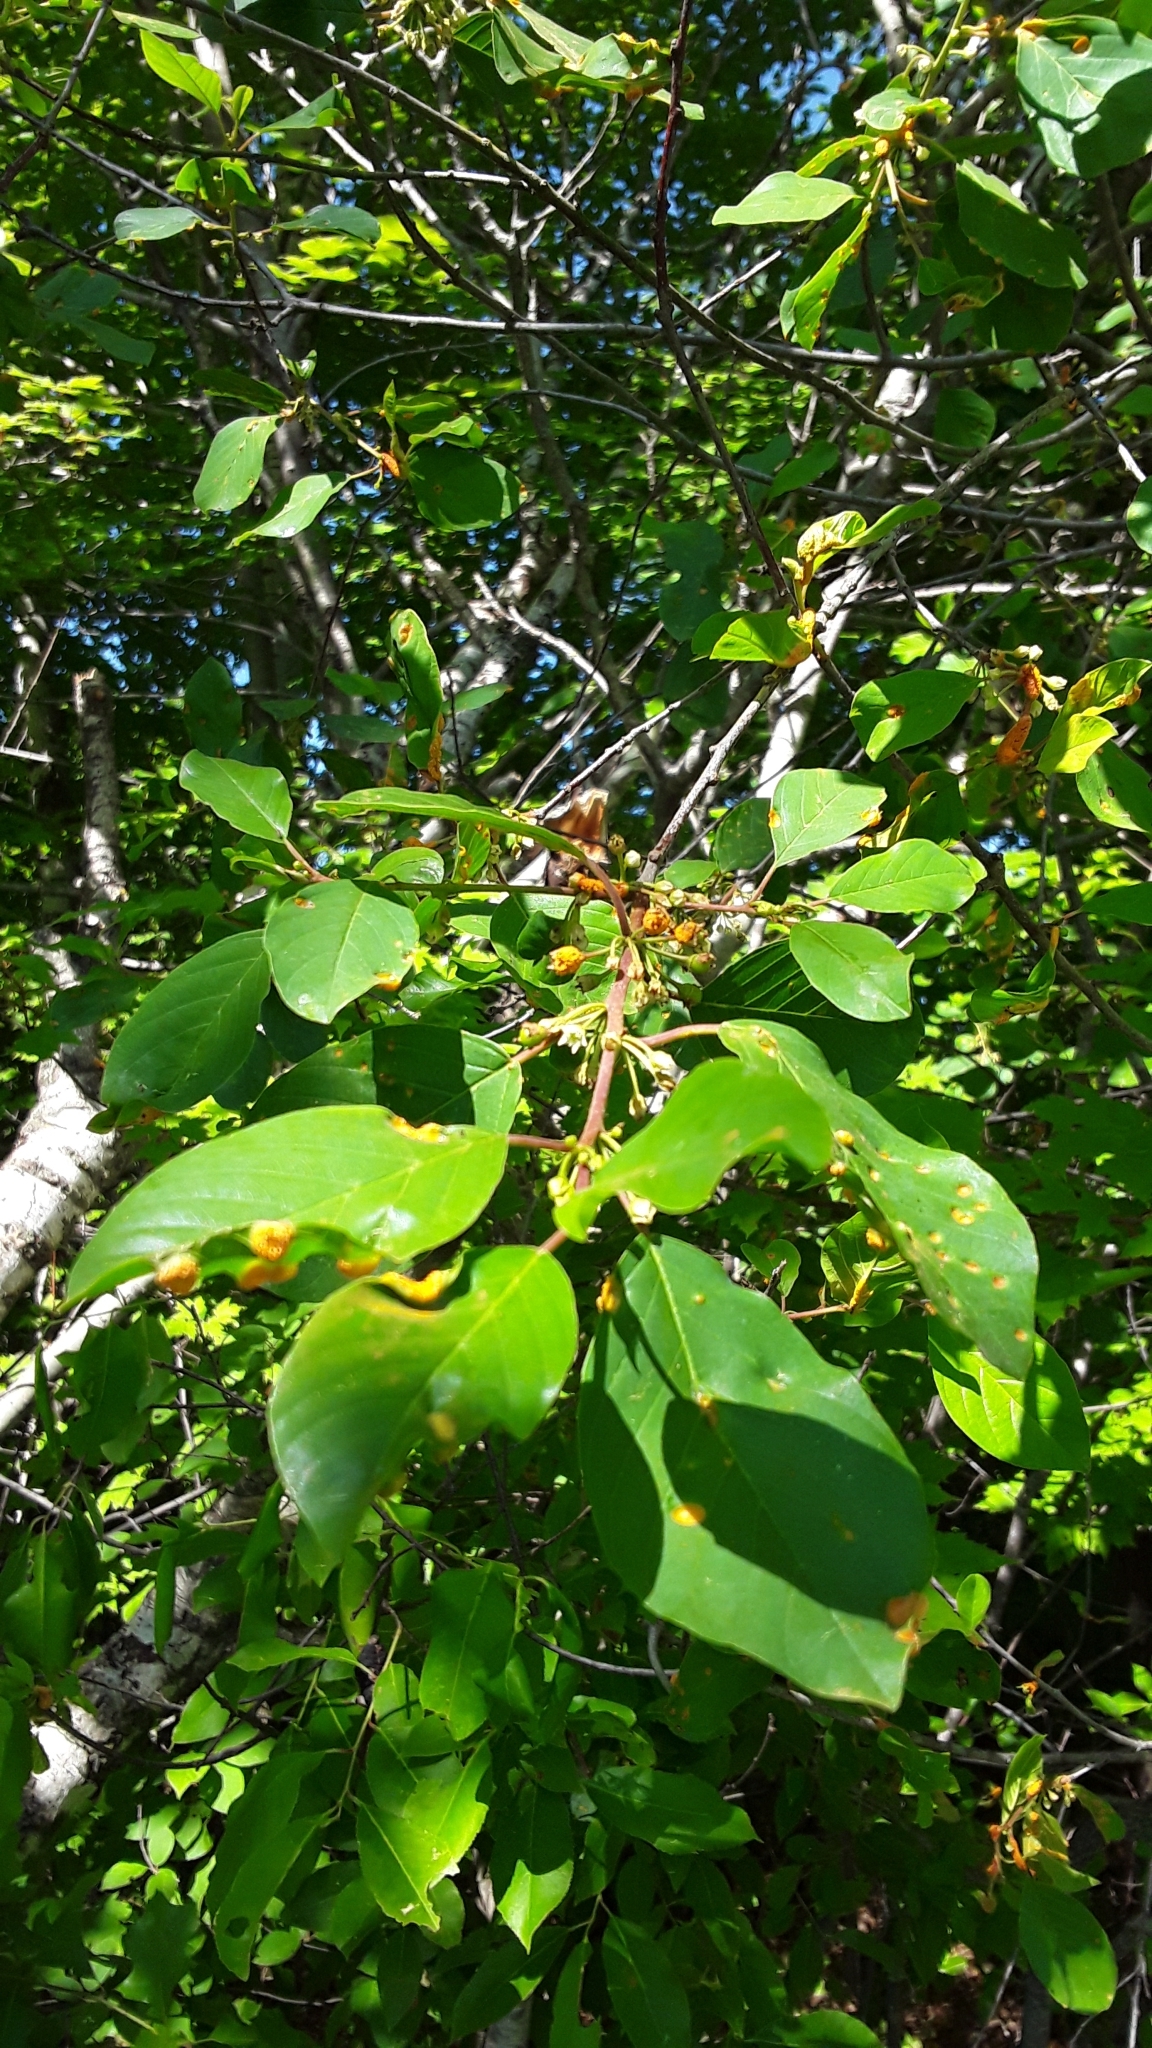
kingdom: Plantae
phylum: Tracheophyta
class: Magnoliopsida
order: Rosales
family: Rhamnaceae
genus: Frangula
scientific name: Frangula alnus
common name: Alder buckthorn
